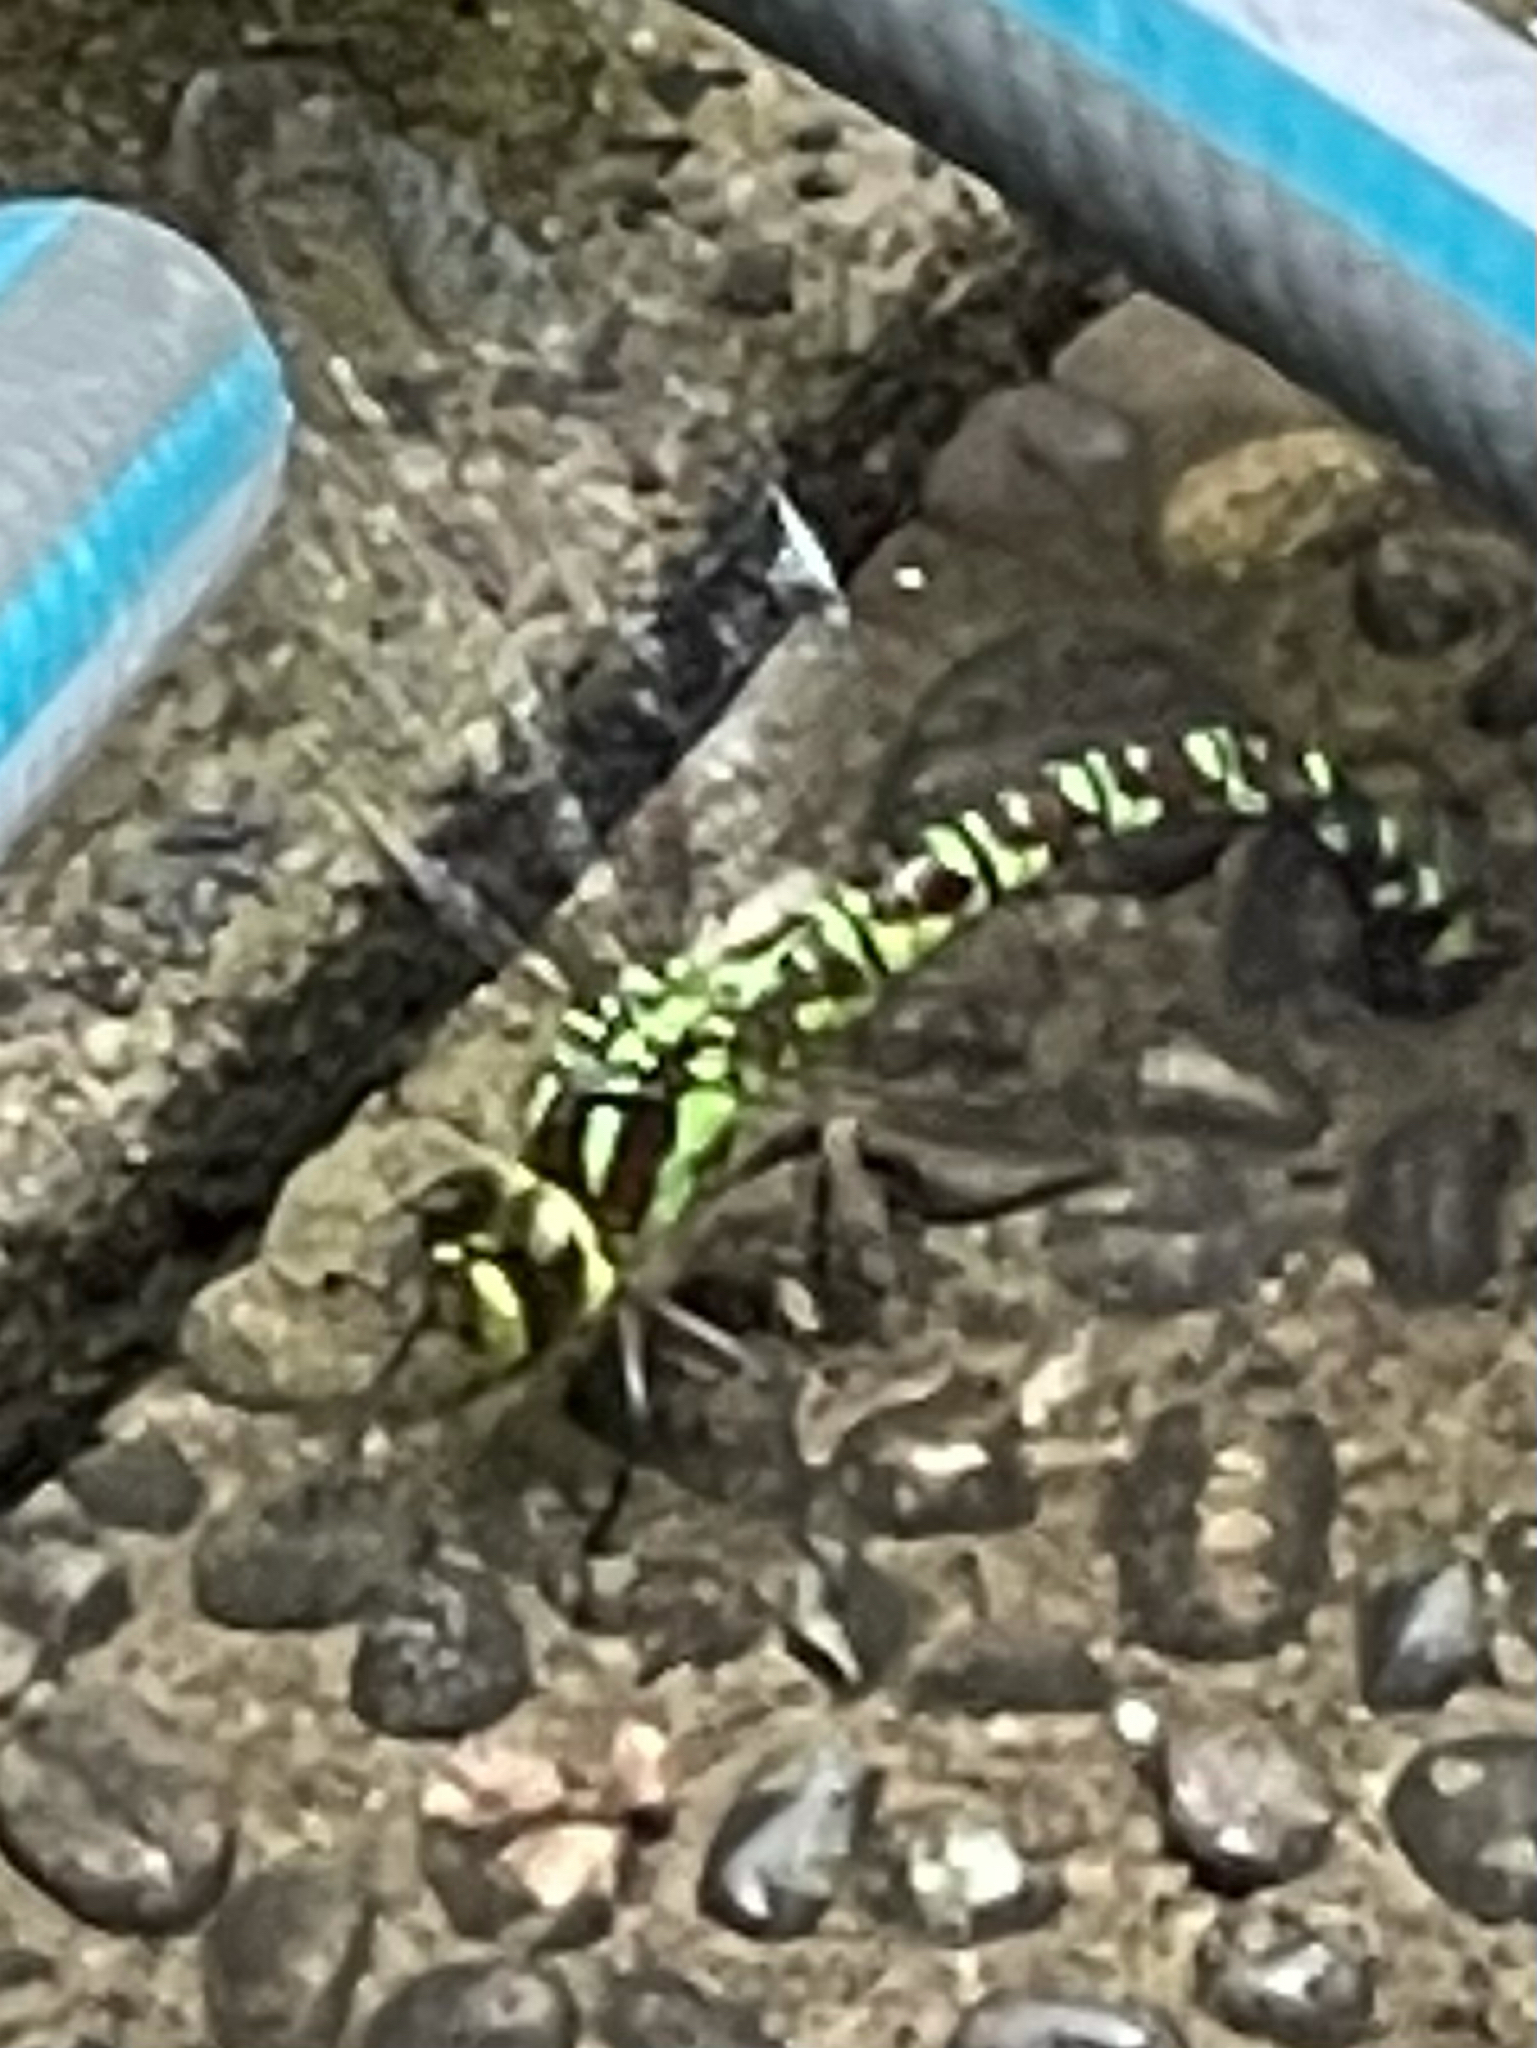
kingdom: Animalia
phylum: Arthropoda
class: Insecta
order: Odonata
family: Aeshnidae
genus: Aeshna
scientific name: Aeshna cyanea
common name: Southern hawker
